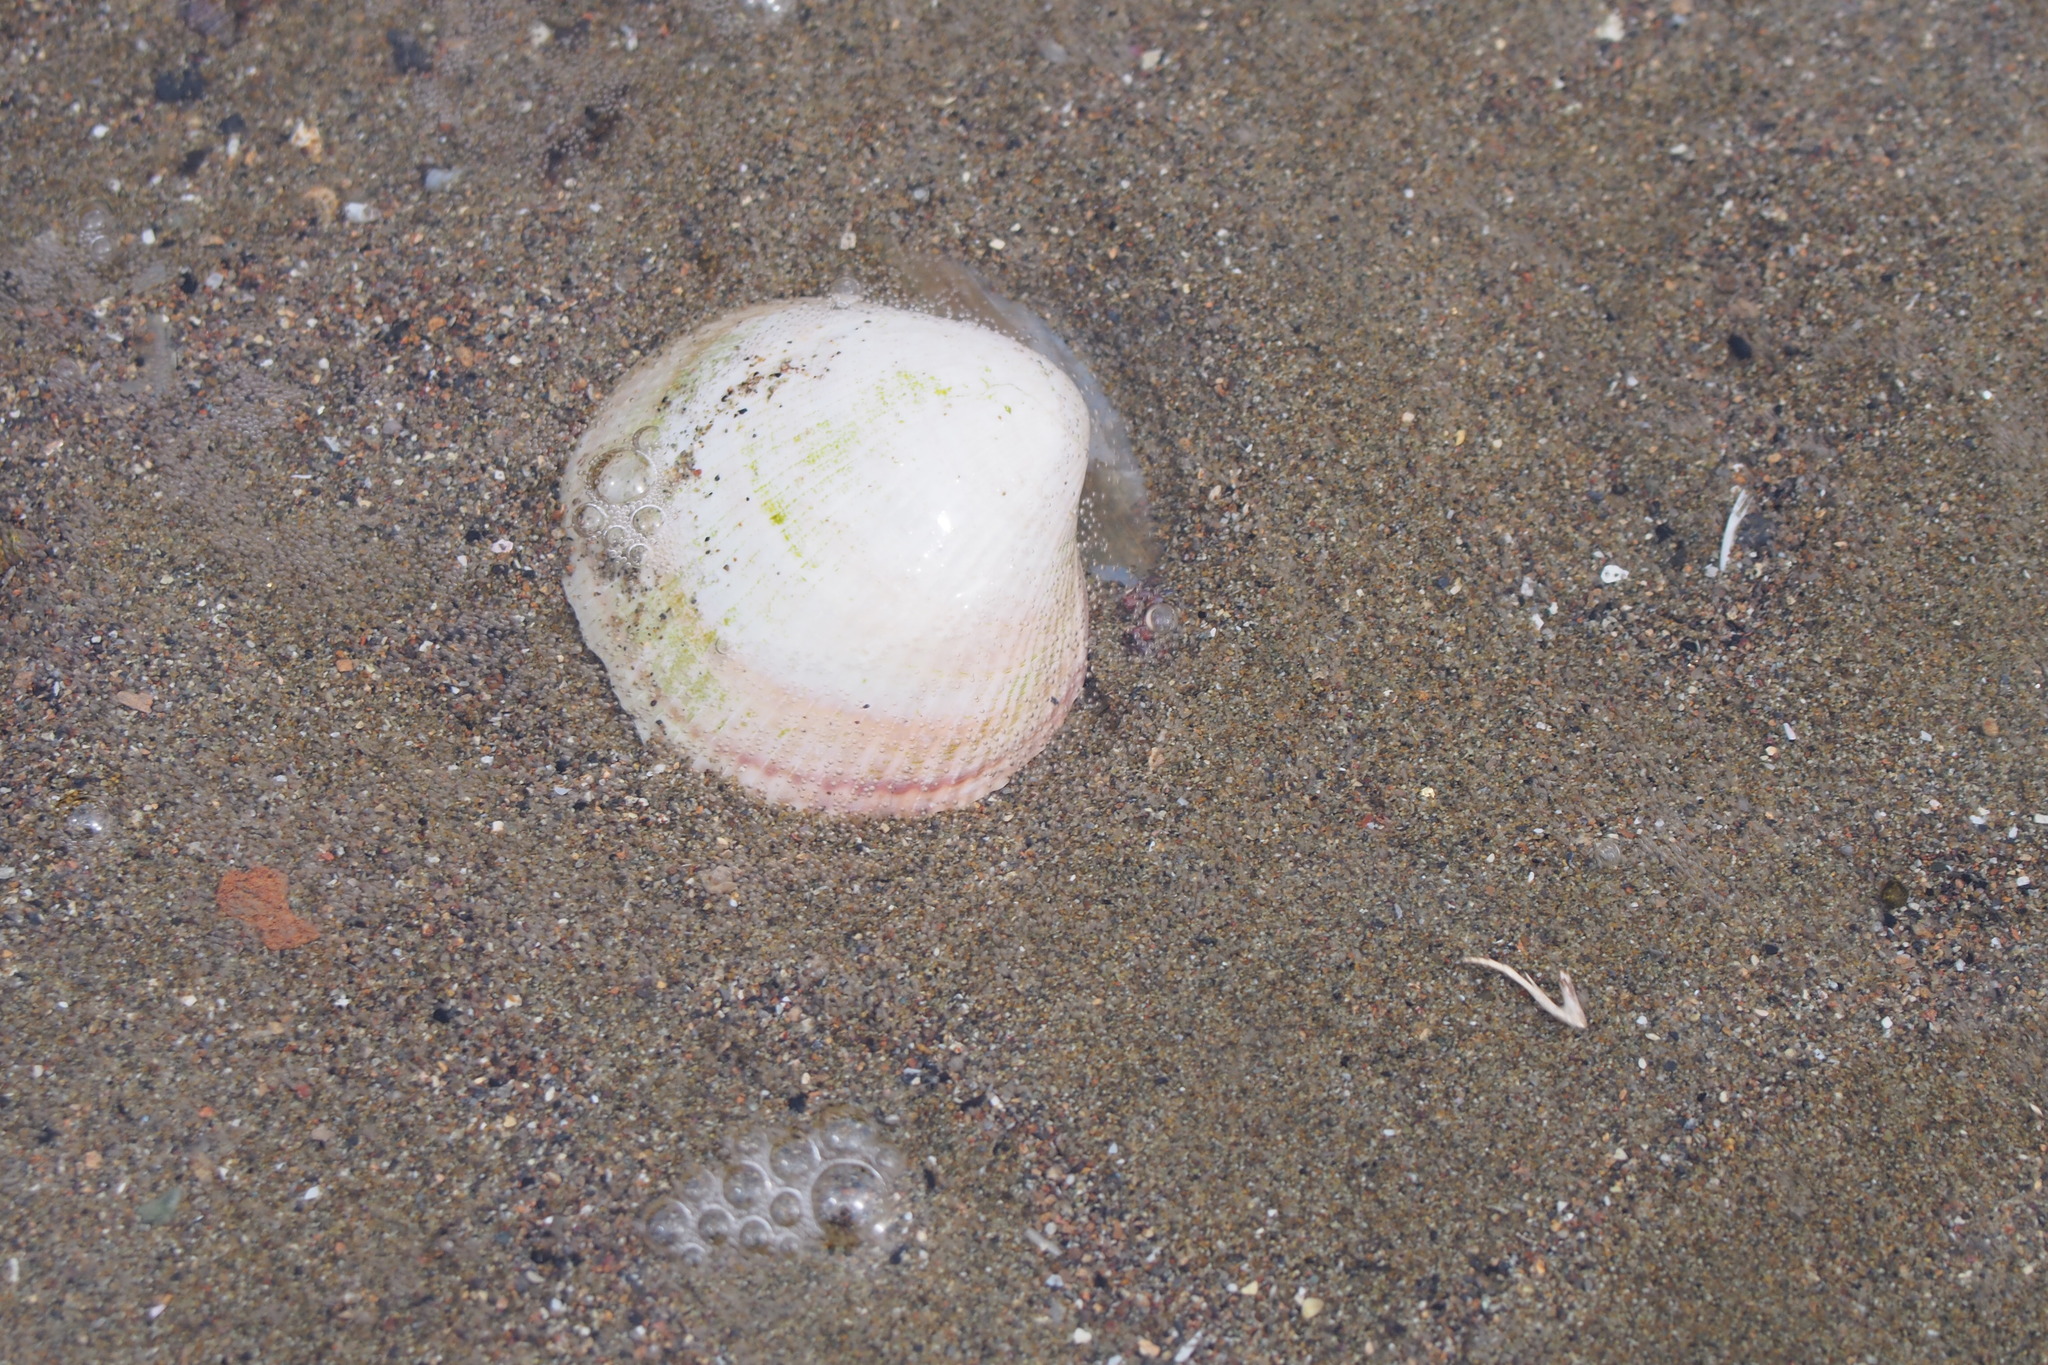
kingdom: Animalia
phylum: Mollusca
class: Bivalvia
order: Cardiida
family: Cardiidae
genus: Fulvia
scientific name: Fulvia mutica
